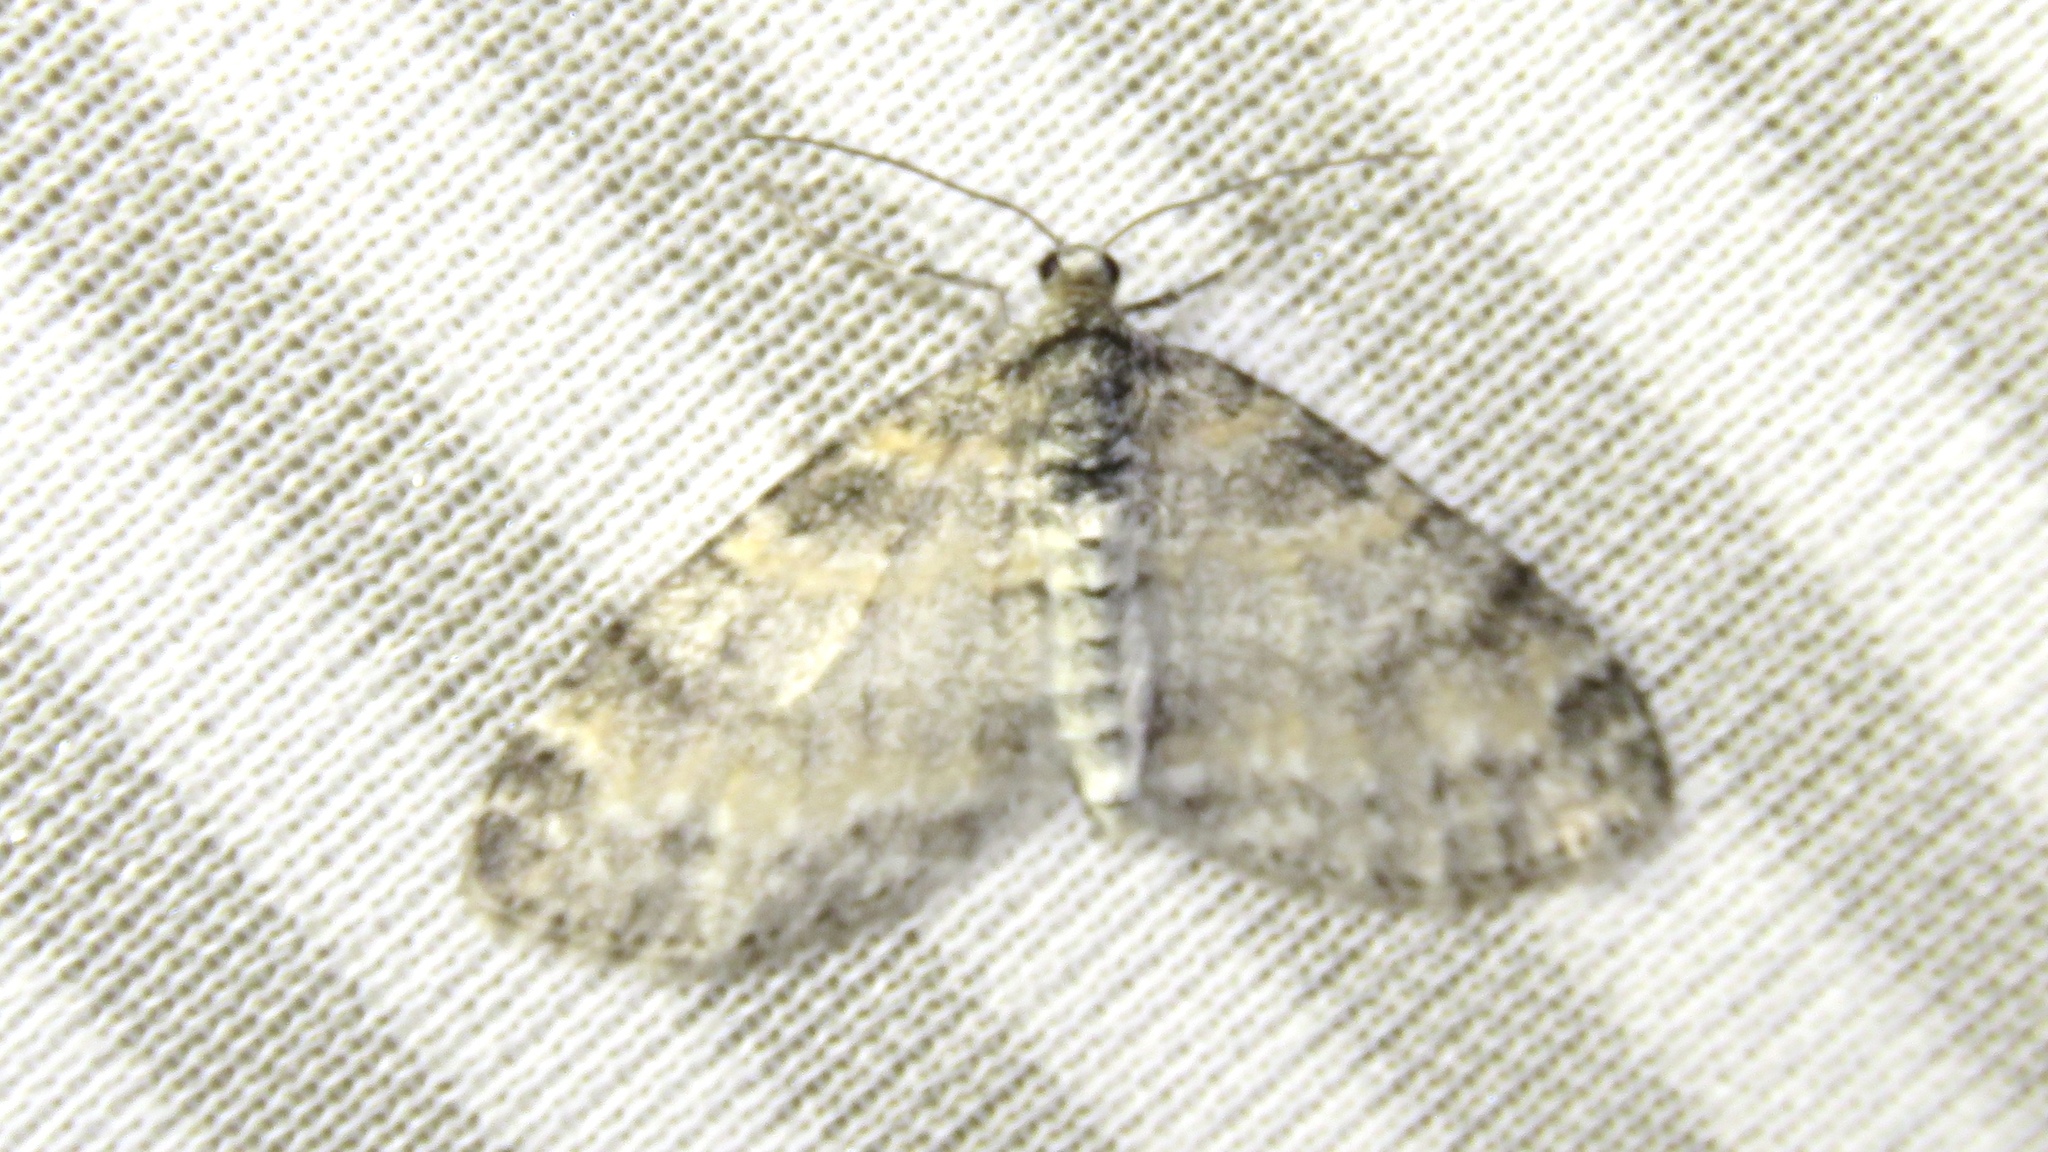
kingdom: Animalia
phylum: Arthropoda
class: Insecta
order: Lepidoptera
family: Geometridae
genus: Lobophora
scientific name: Lobophora nivigerata
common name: Powdered bigwing
